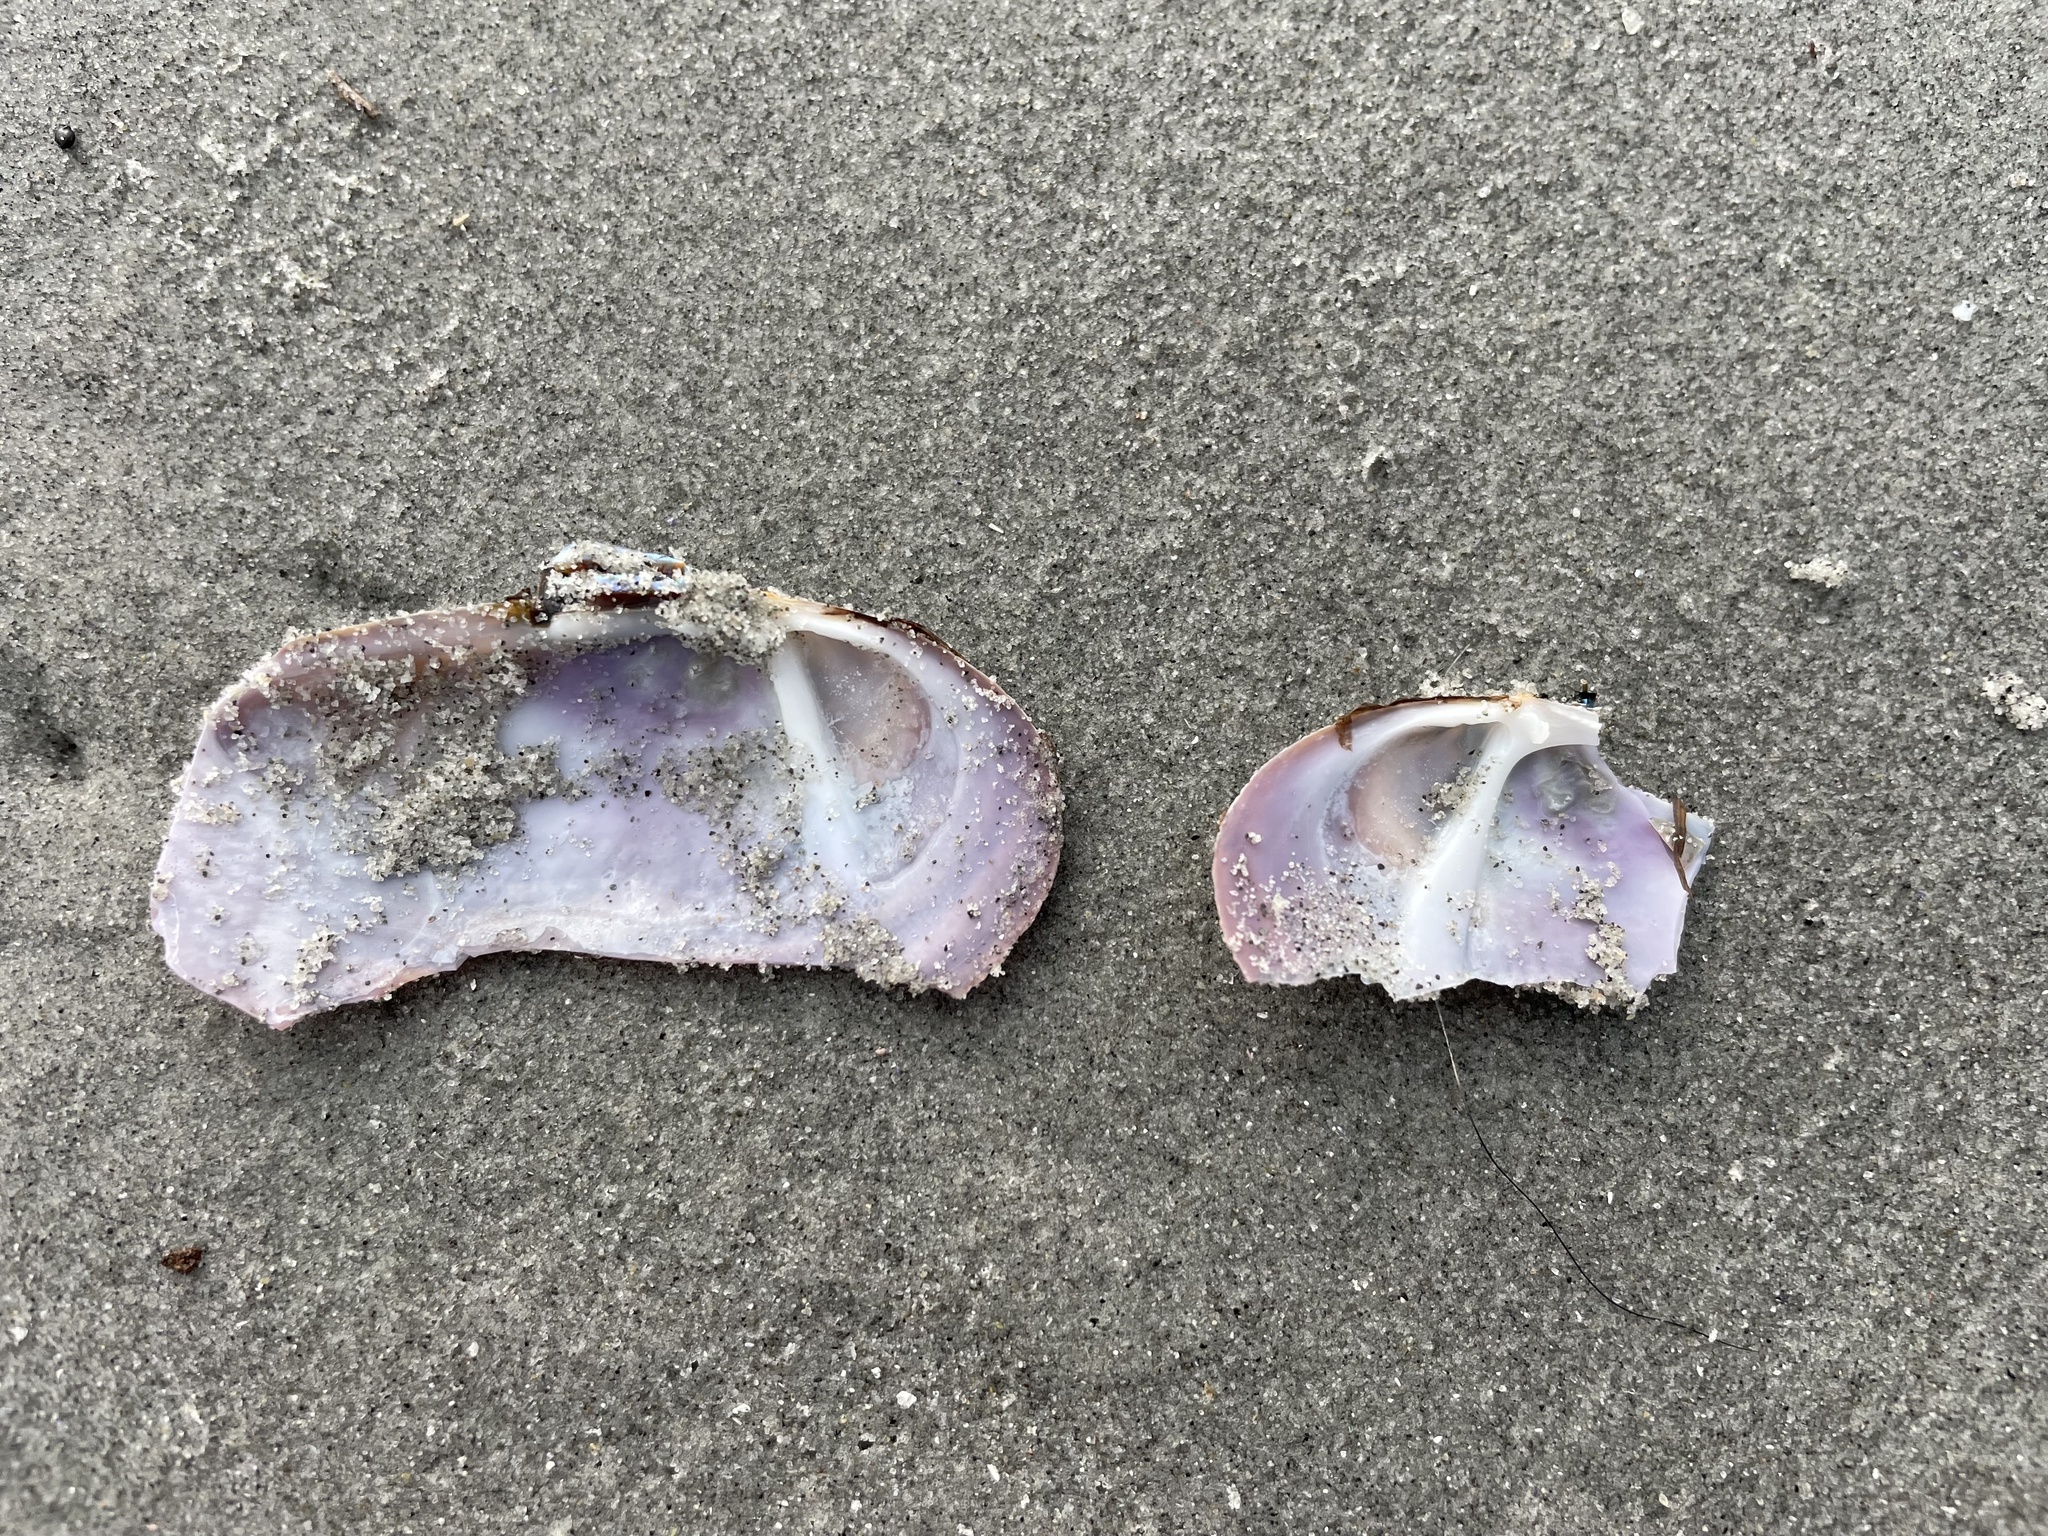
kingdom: Animalia
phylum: Mollusca
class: Bivalvia
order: Adapedonta
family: Pharidae
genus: Siliqua
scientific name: Siliqua costata
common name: Atlantic razor
